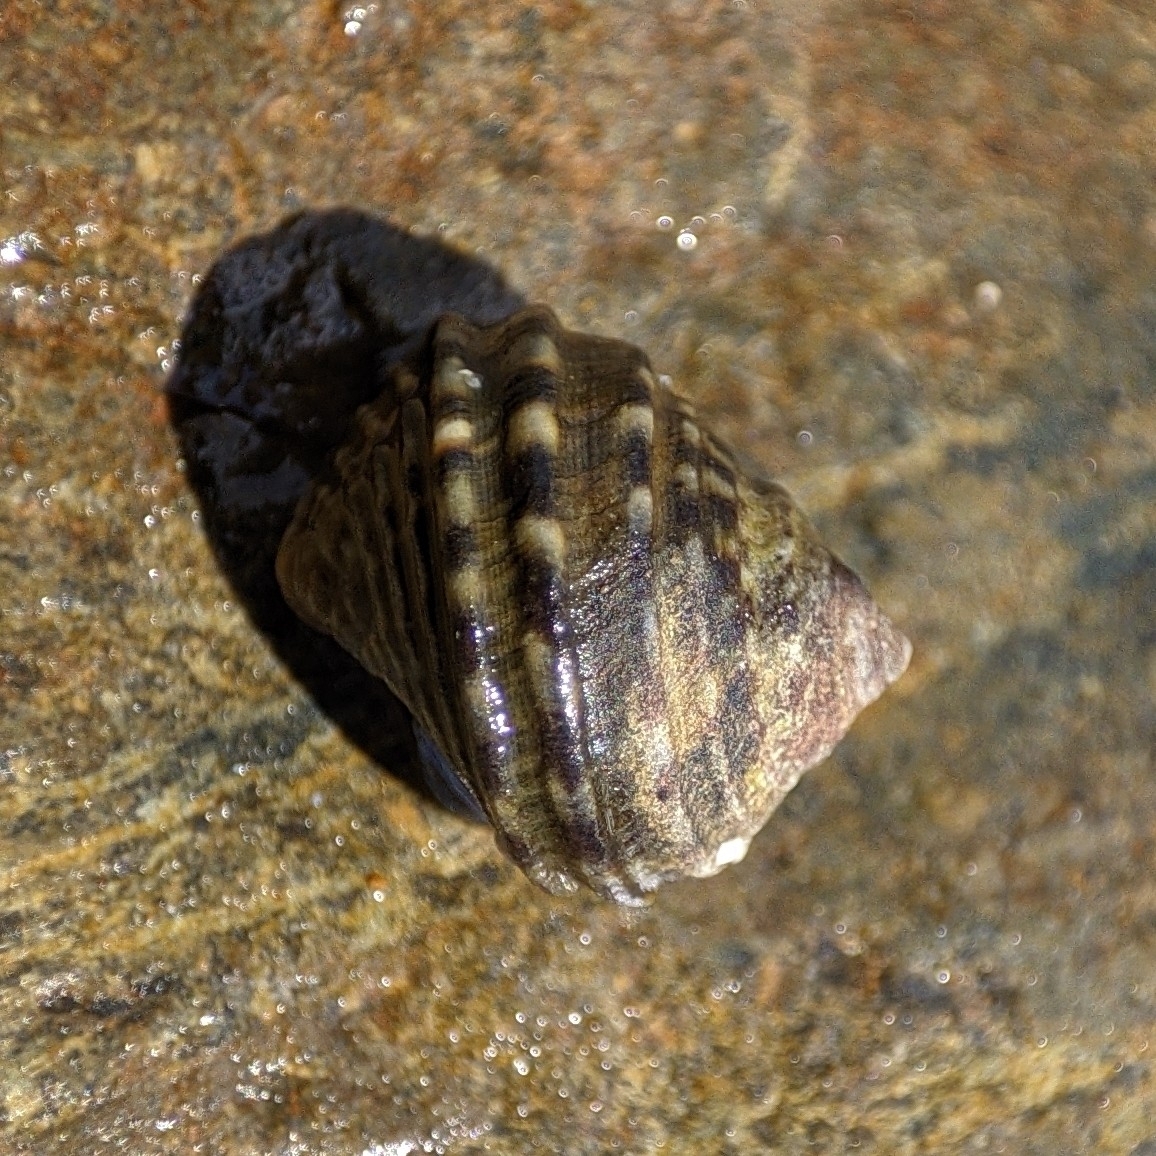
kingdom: Animalia
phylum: Mollusca
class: Gastropoda
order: Littorinimorpha
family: Littorinidae
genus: Littorina
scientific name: Littorina brevicula
